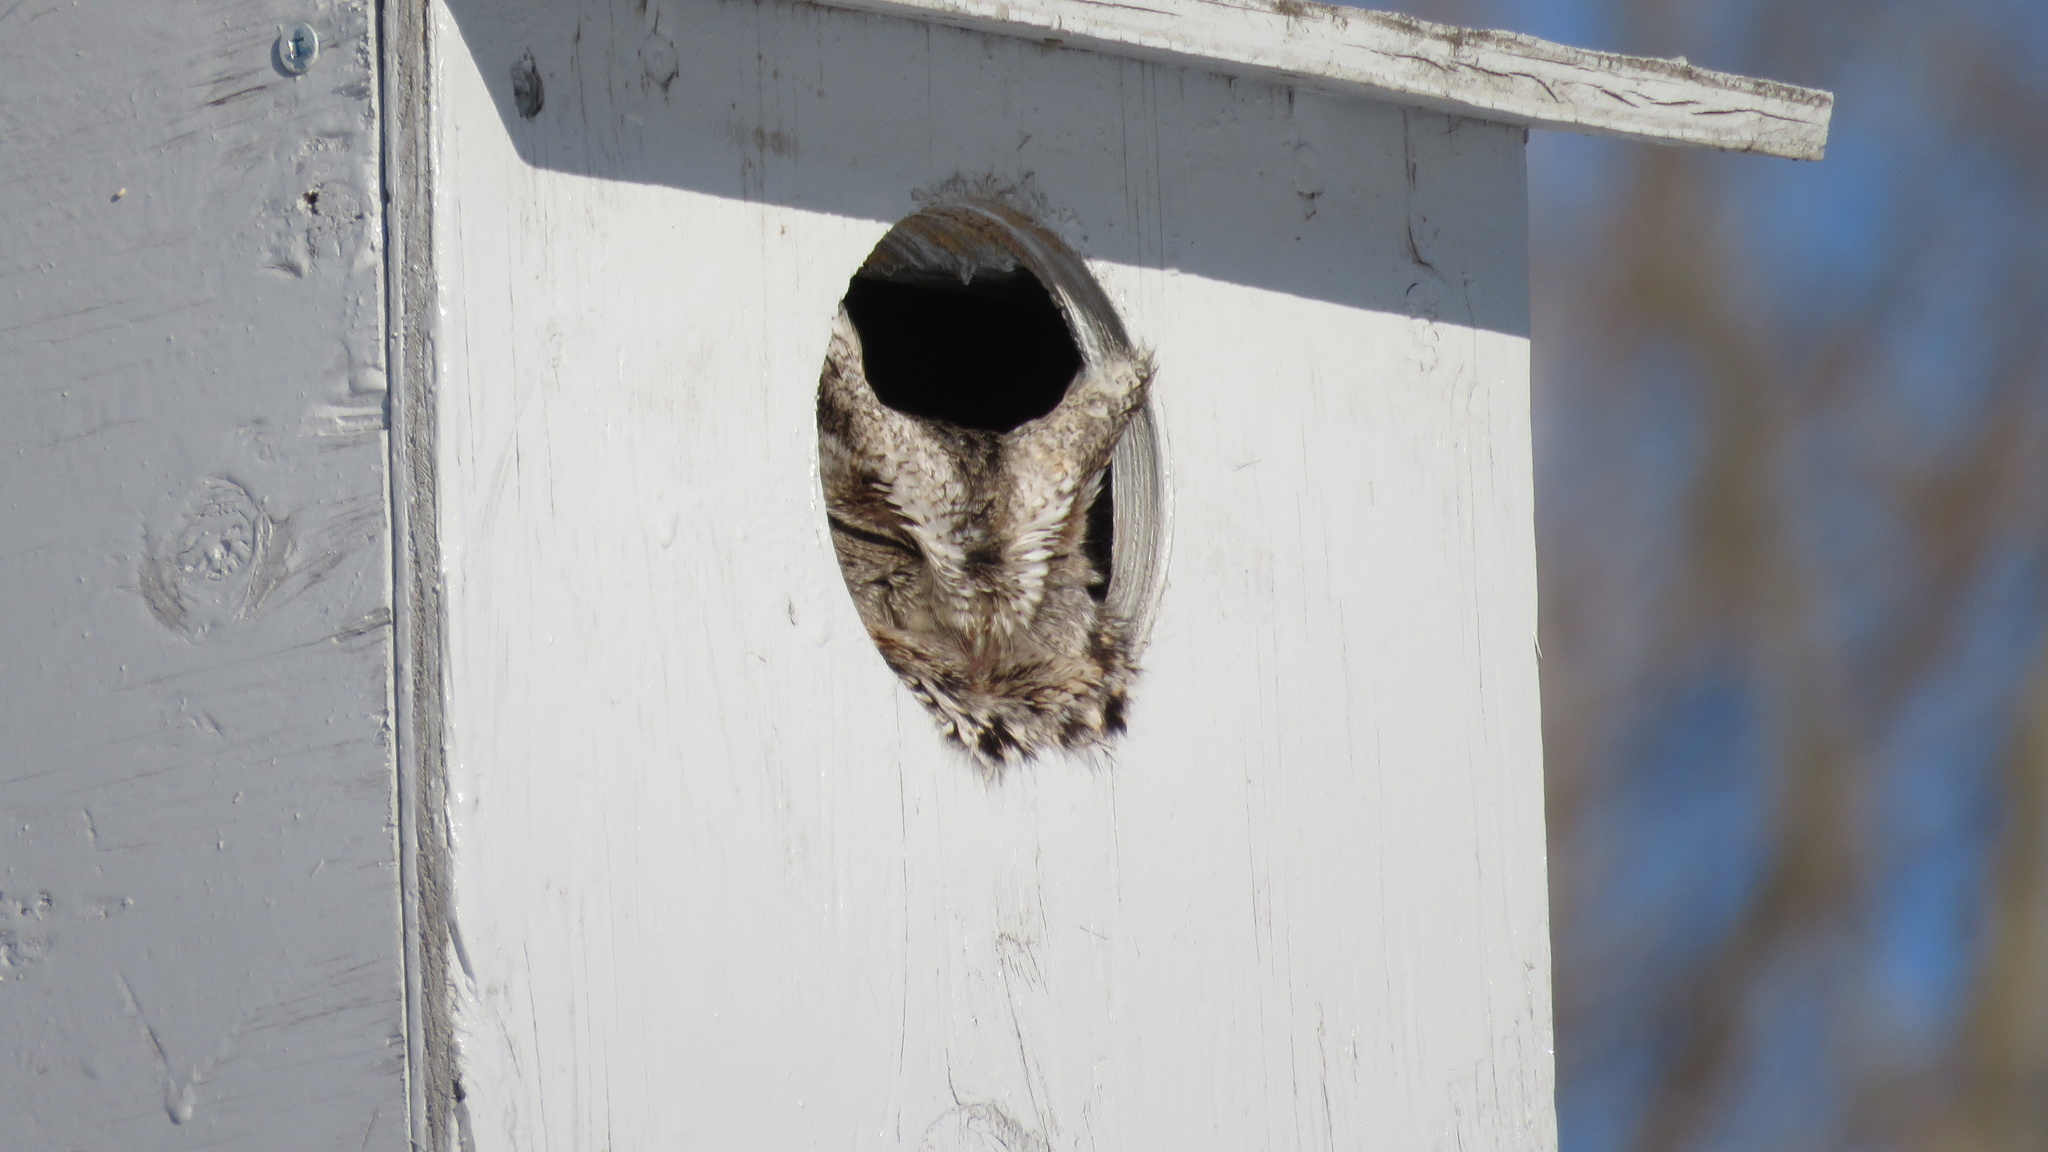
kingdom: Animalia
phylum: Chordata
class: Aves
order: Strigiformes
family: Strigidae
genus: Megascops
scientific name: Megascops asio
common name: Eastern screech-owl
